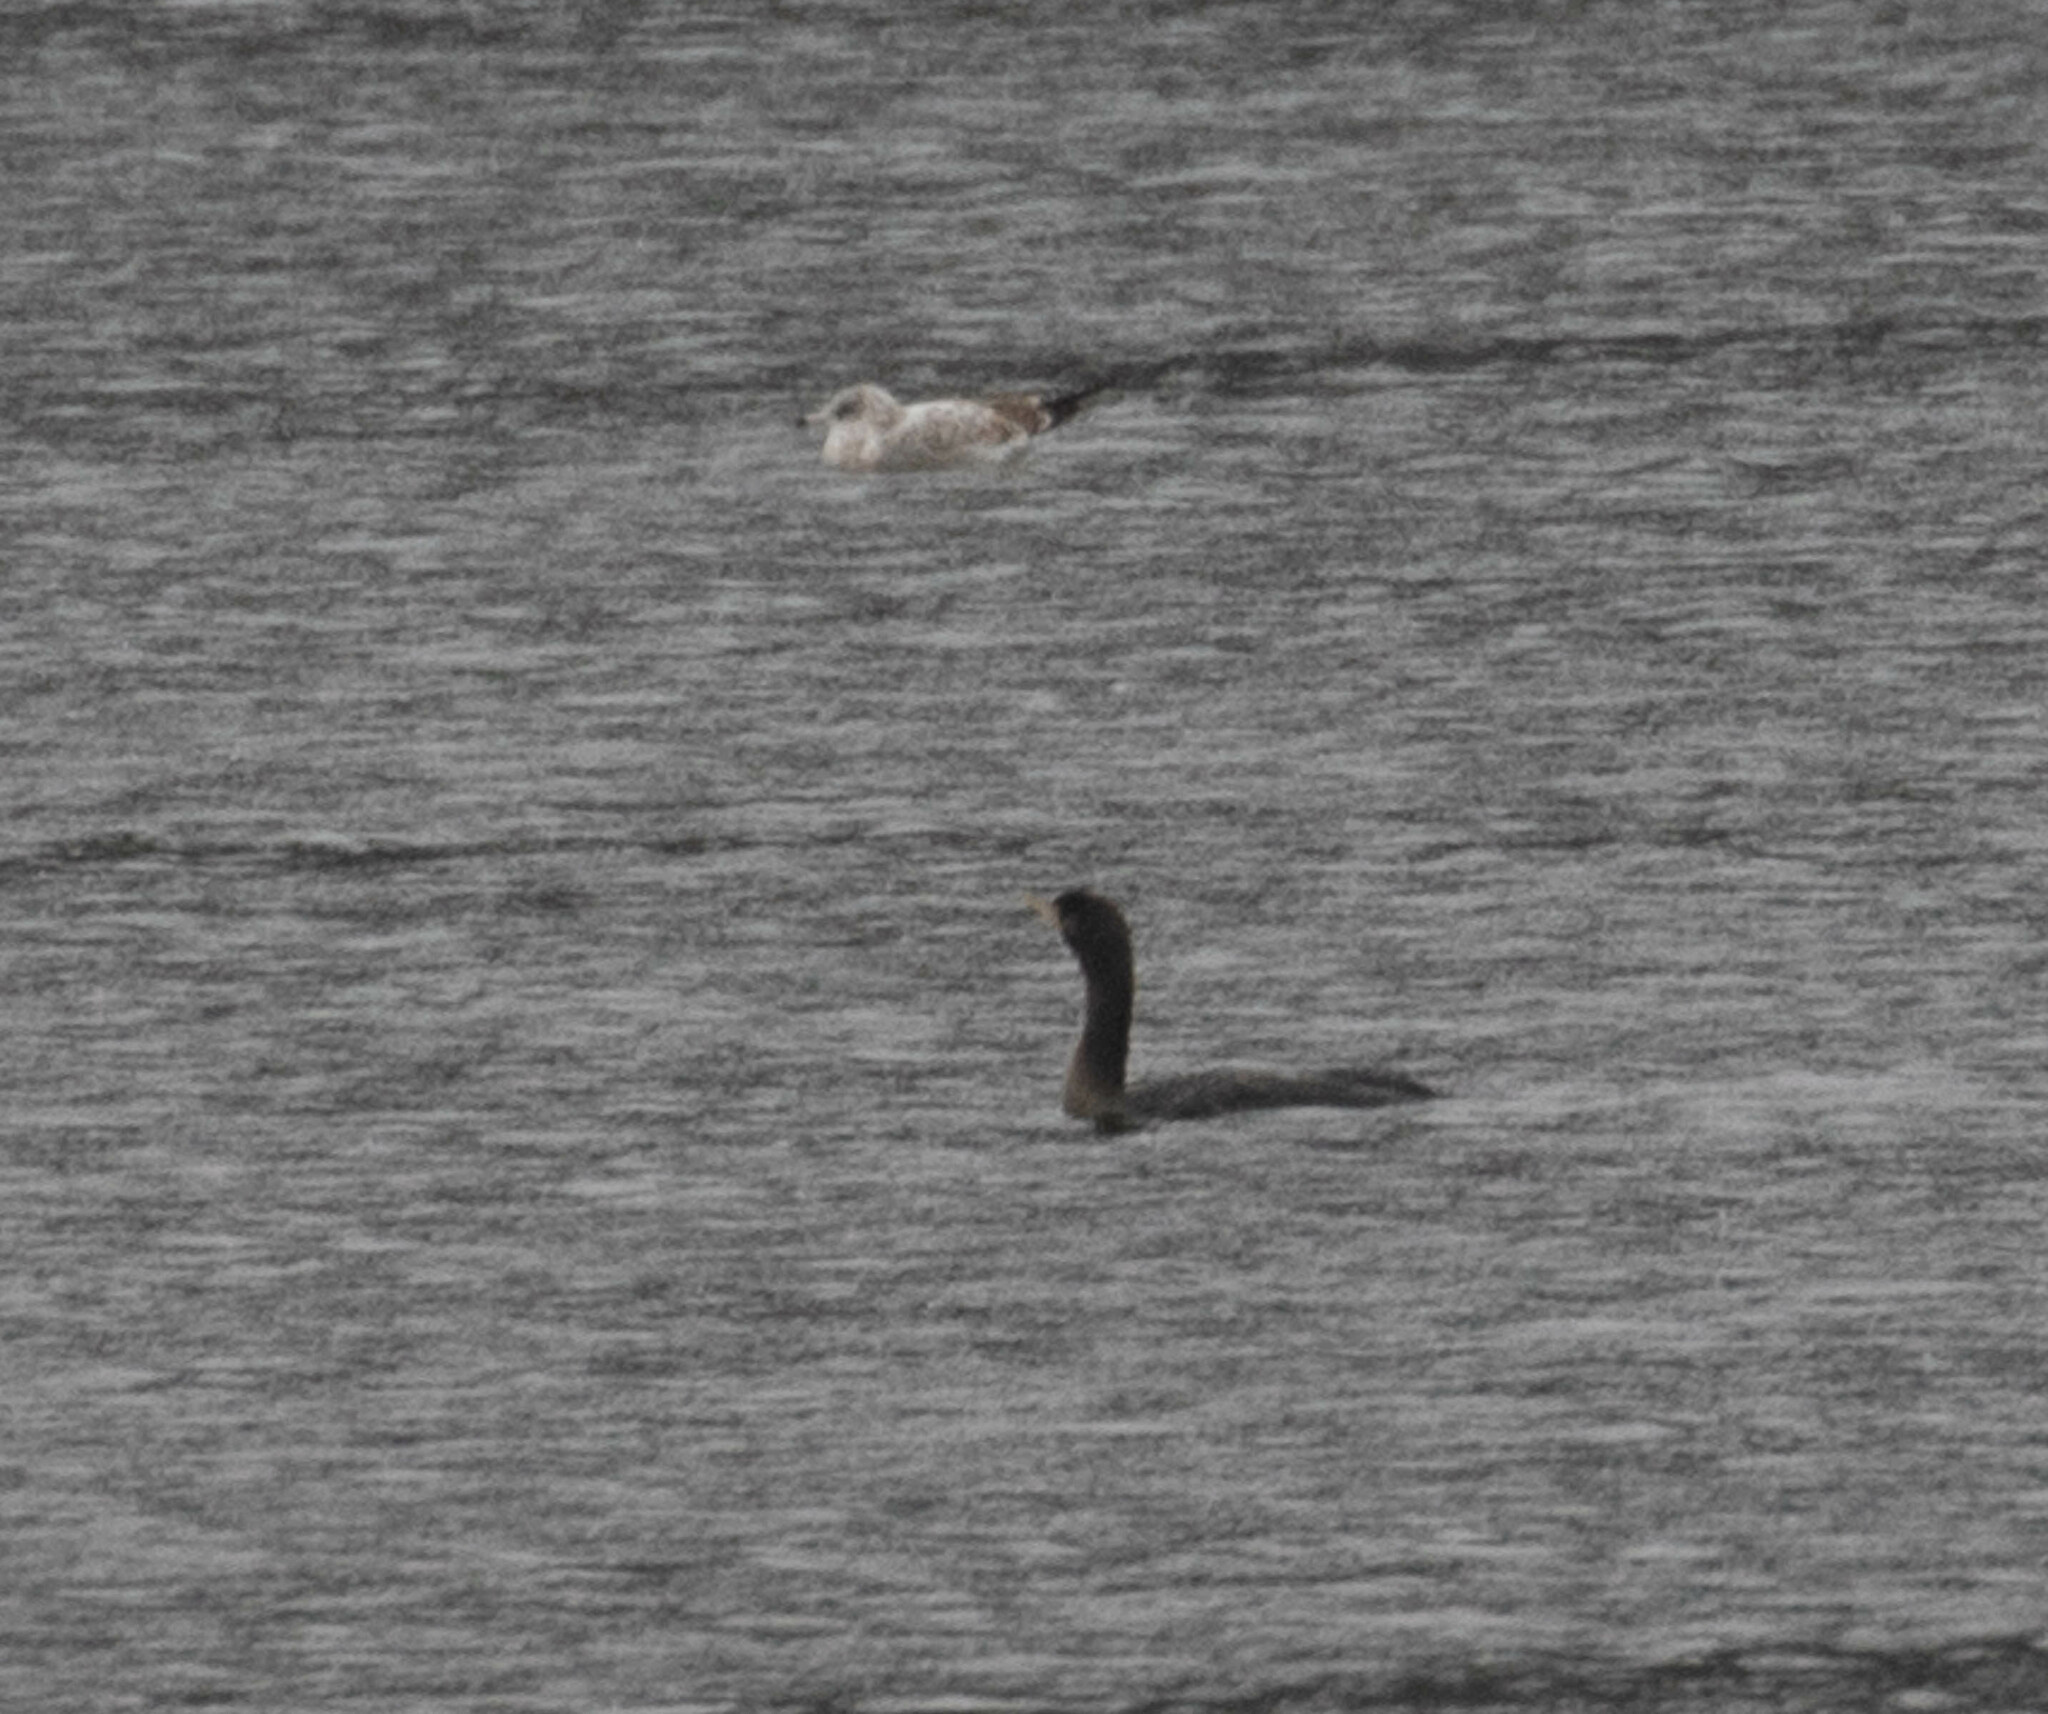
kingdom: Animalia
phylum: Chordata
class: Aves
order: Suliformes
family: Phalacrocoracidae
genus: Phalacrocorax
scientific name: Phalacrocorax auritus
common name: Double-crested cormorant
